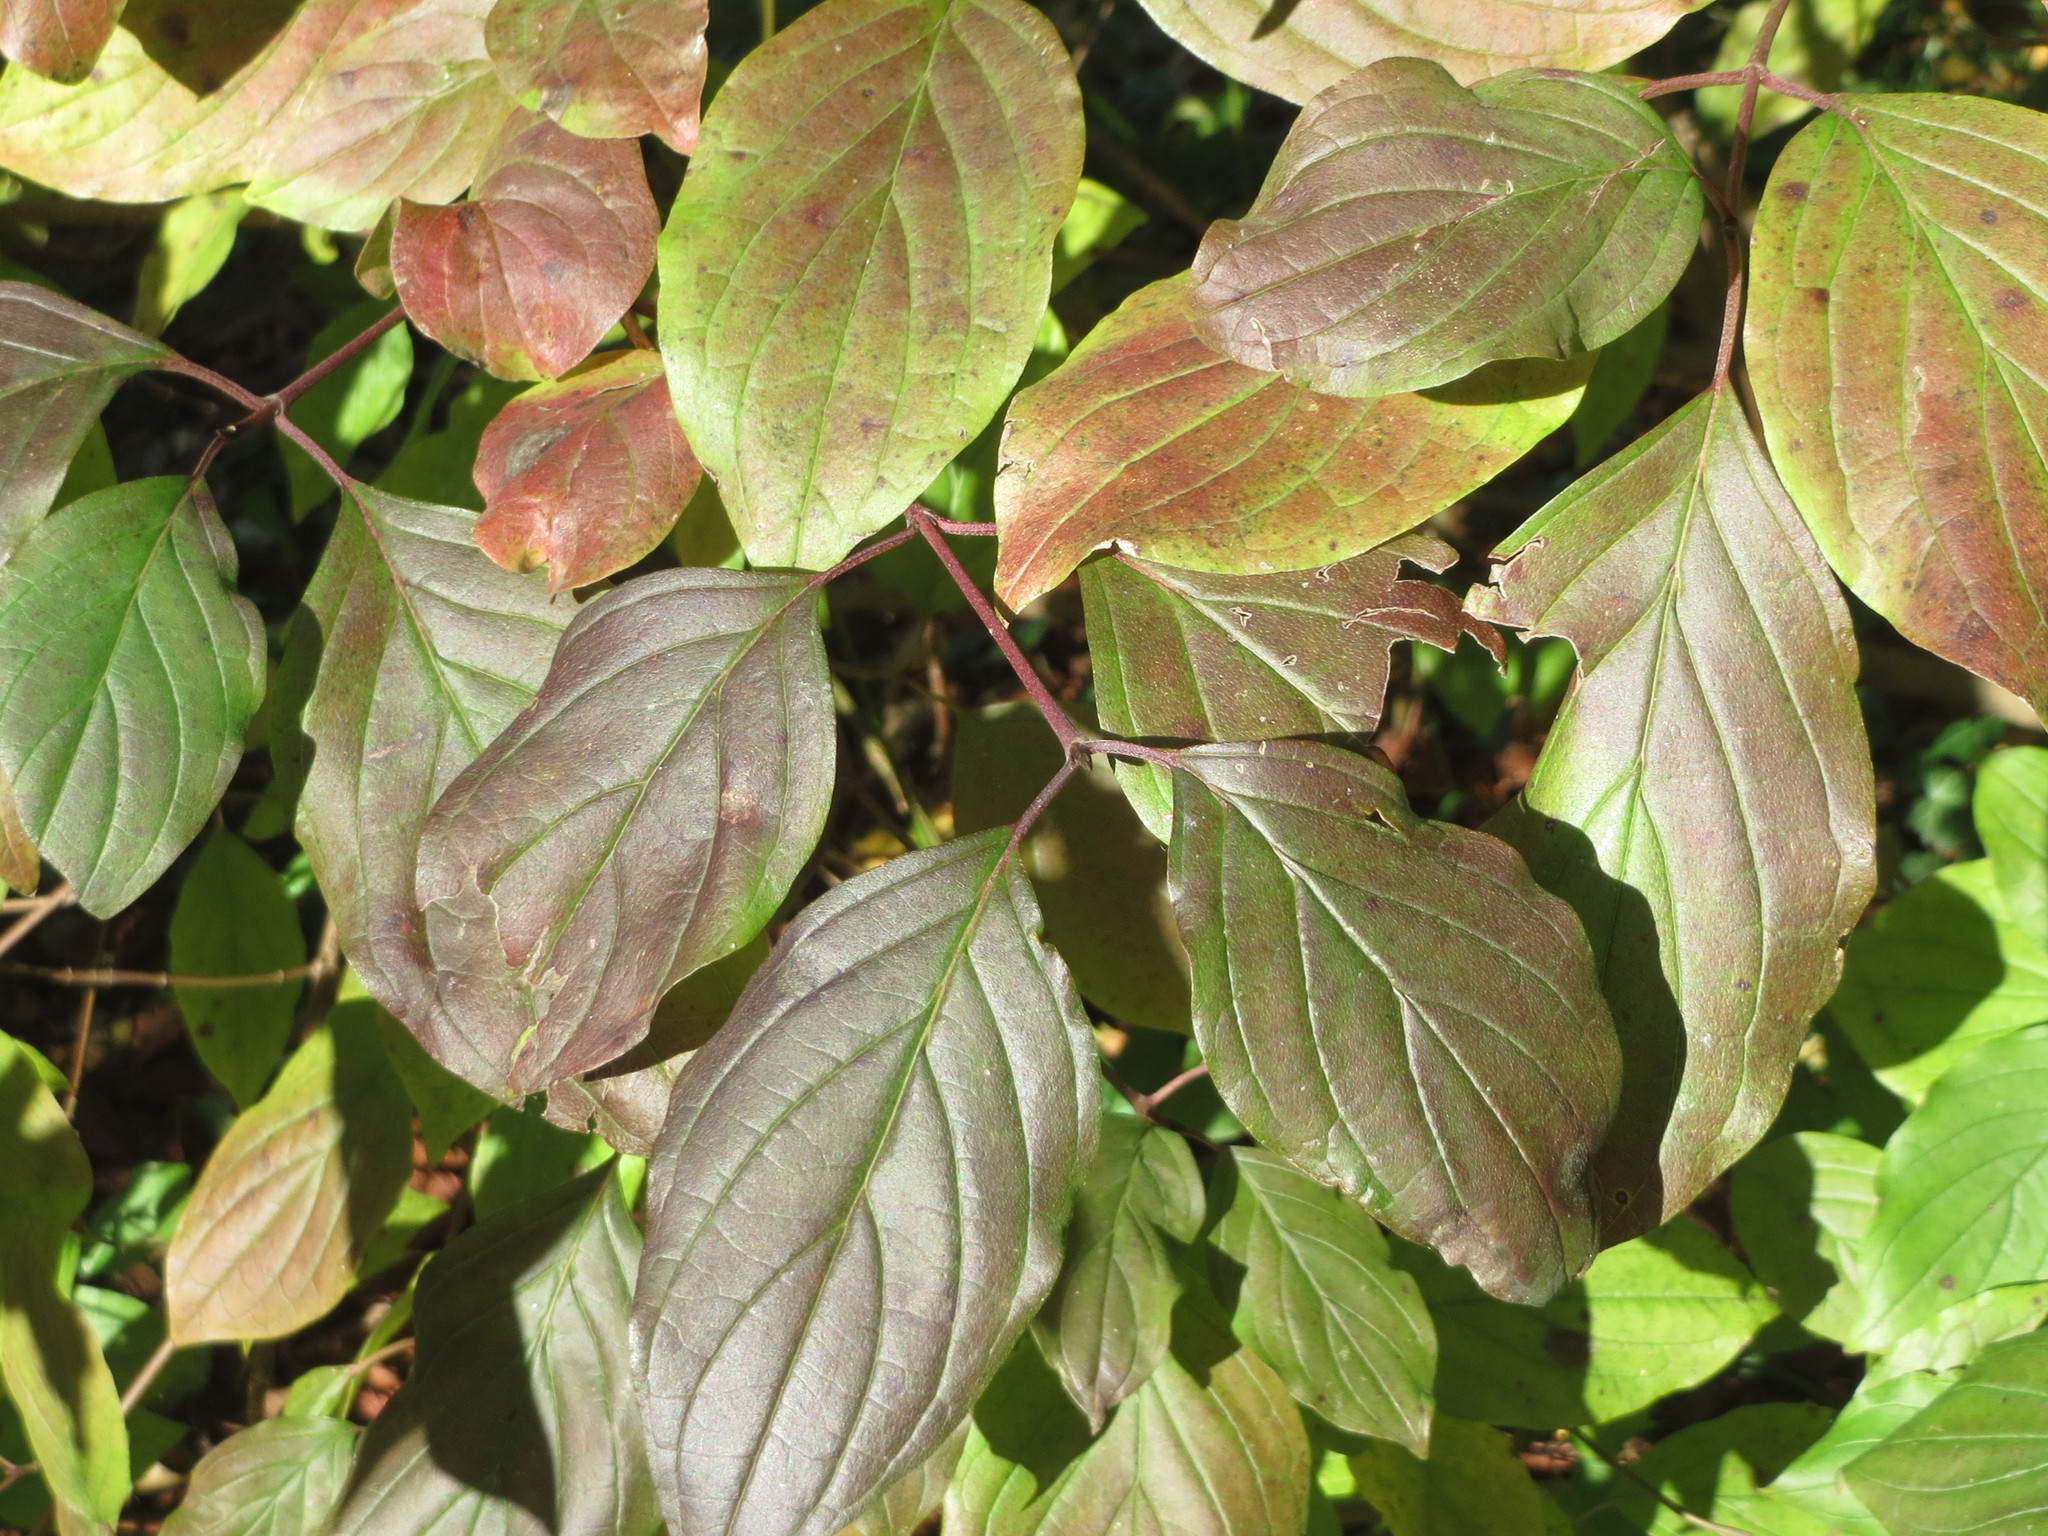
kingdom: Plantae
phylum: Tracheophyta
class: Magnoliopsida
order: Cornales
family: Cornaceae
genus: Cornus
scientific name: Cornus sanguinea
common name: Dogwood
